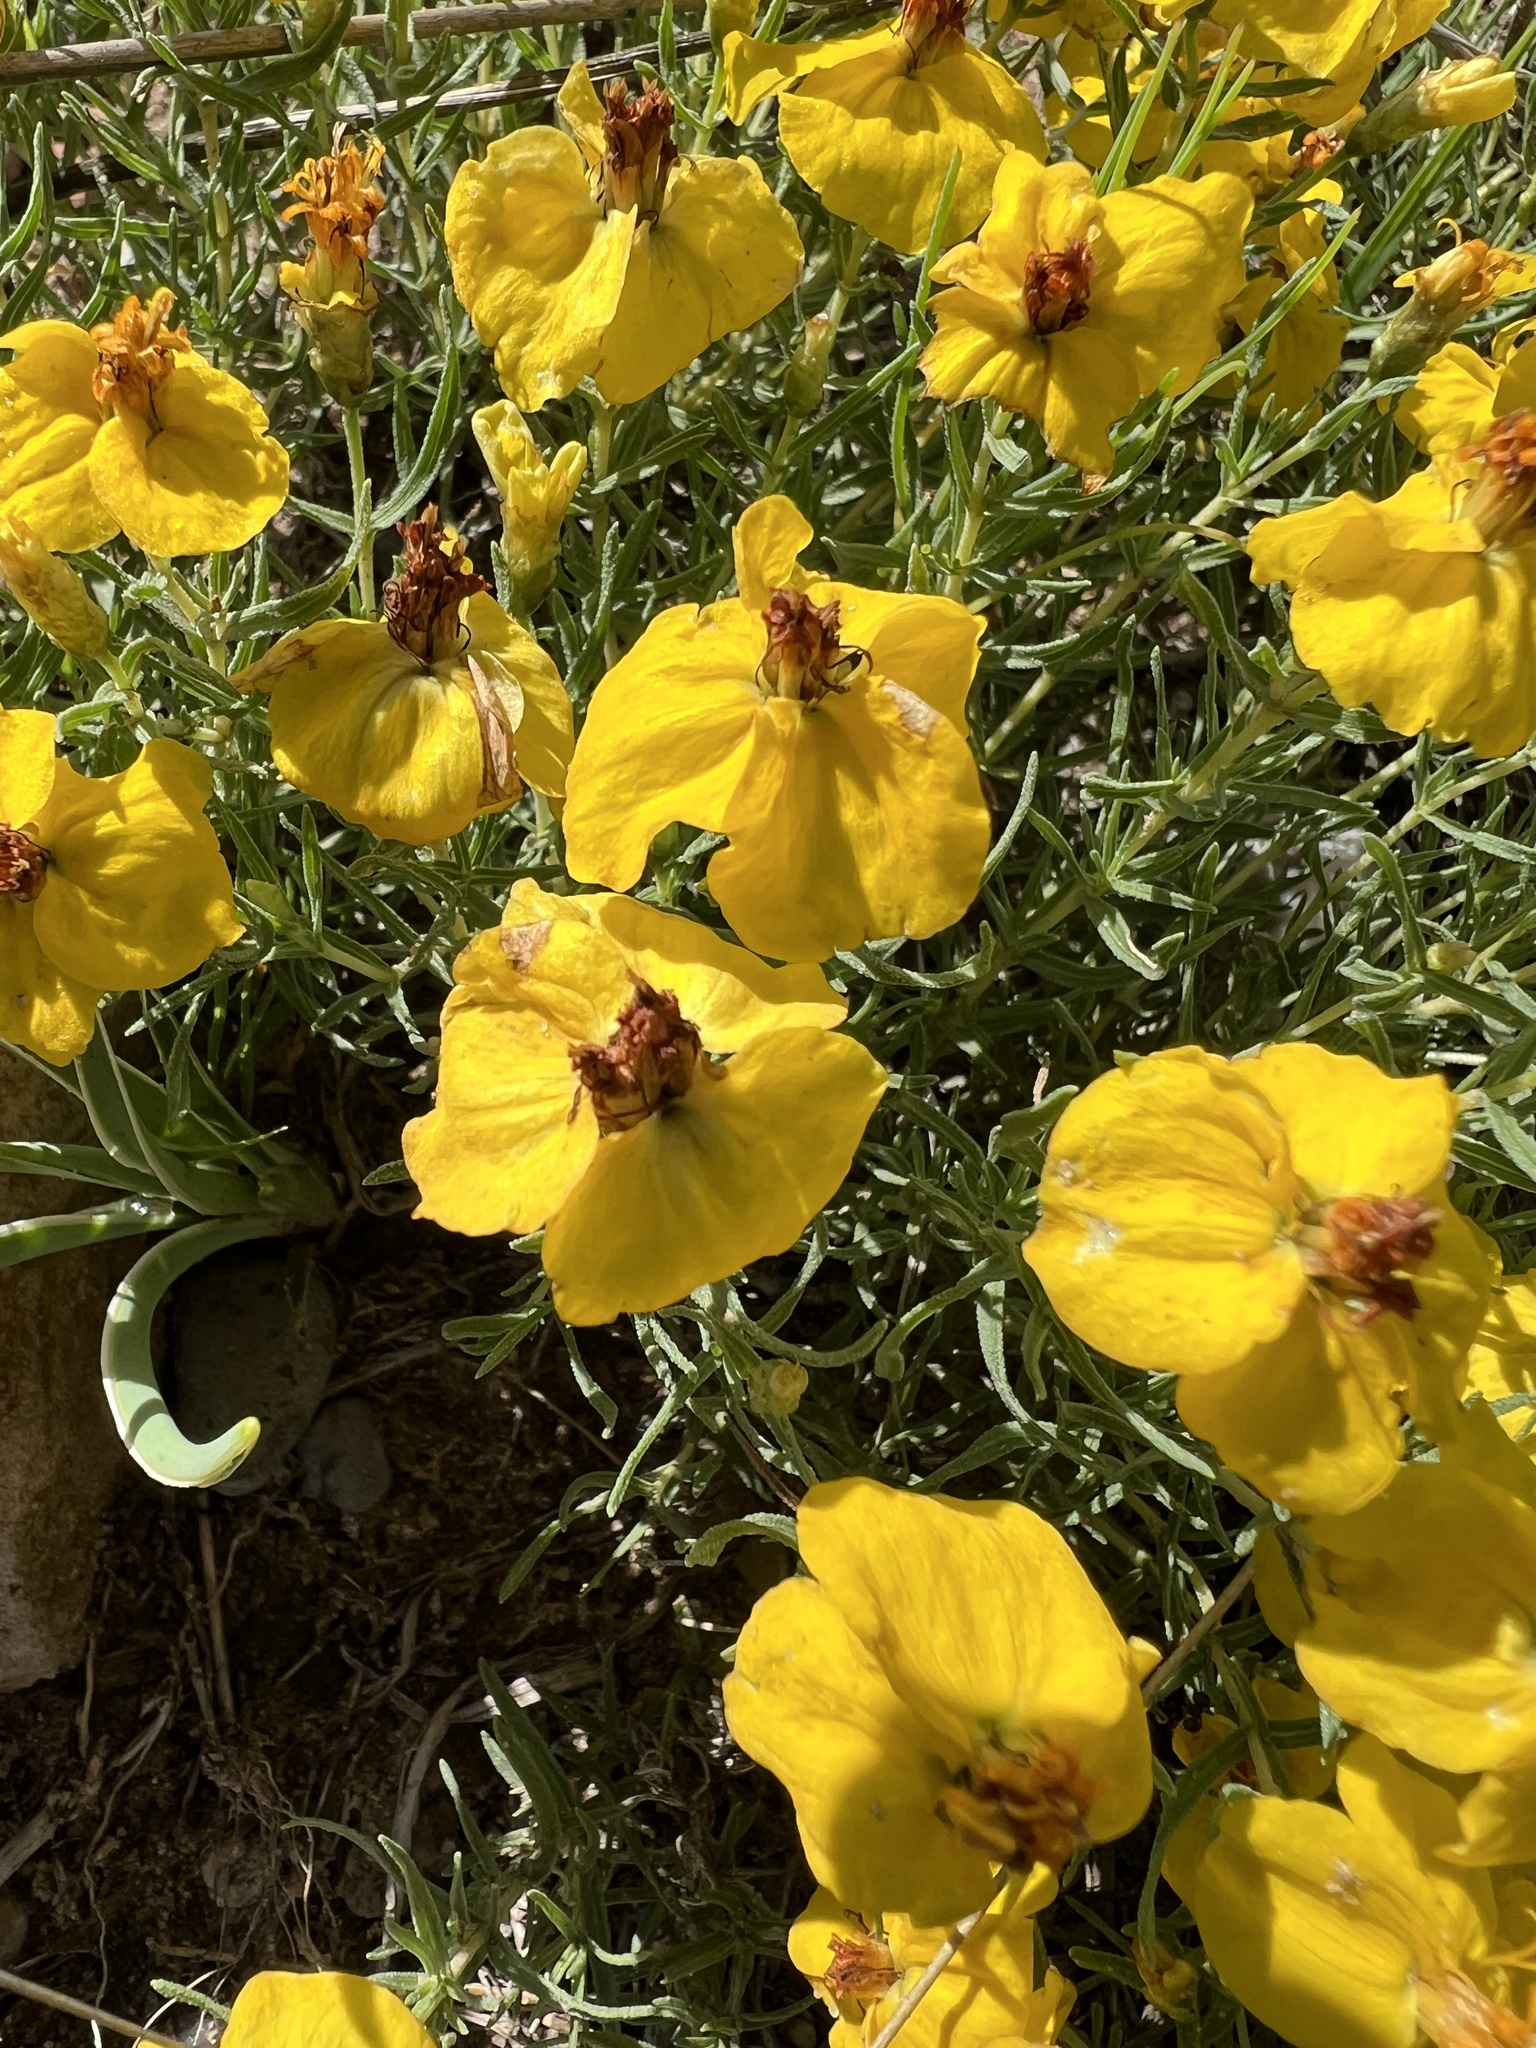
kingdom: Plantae
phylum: Tracheophyta
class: Magnoliopsida
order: Asterales
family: Asteraceae
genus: Zinnia
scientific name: Zinnia grandiflora
